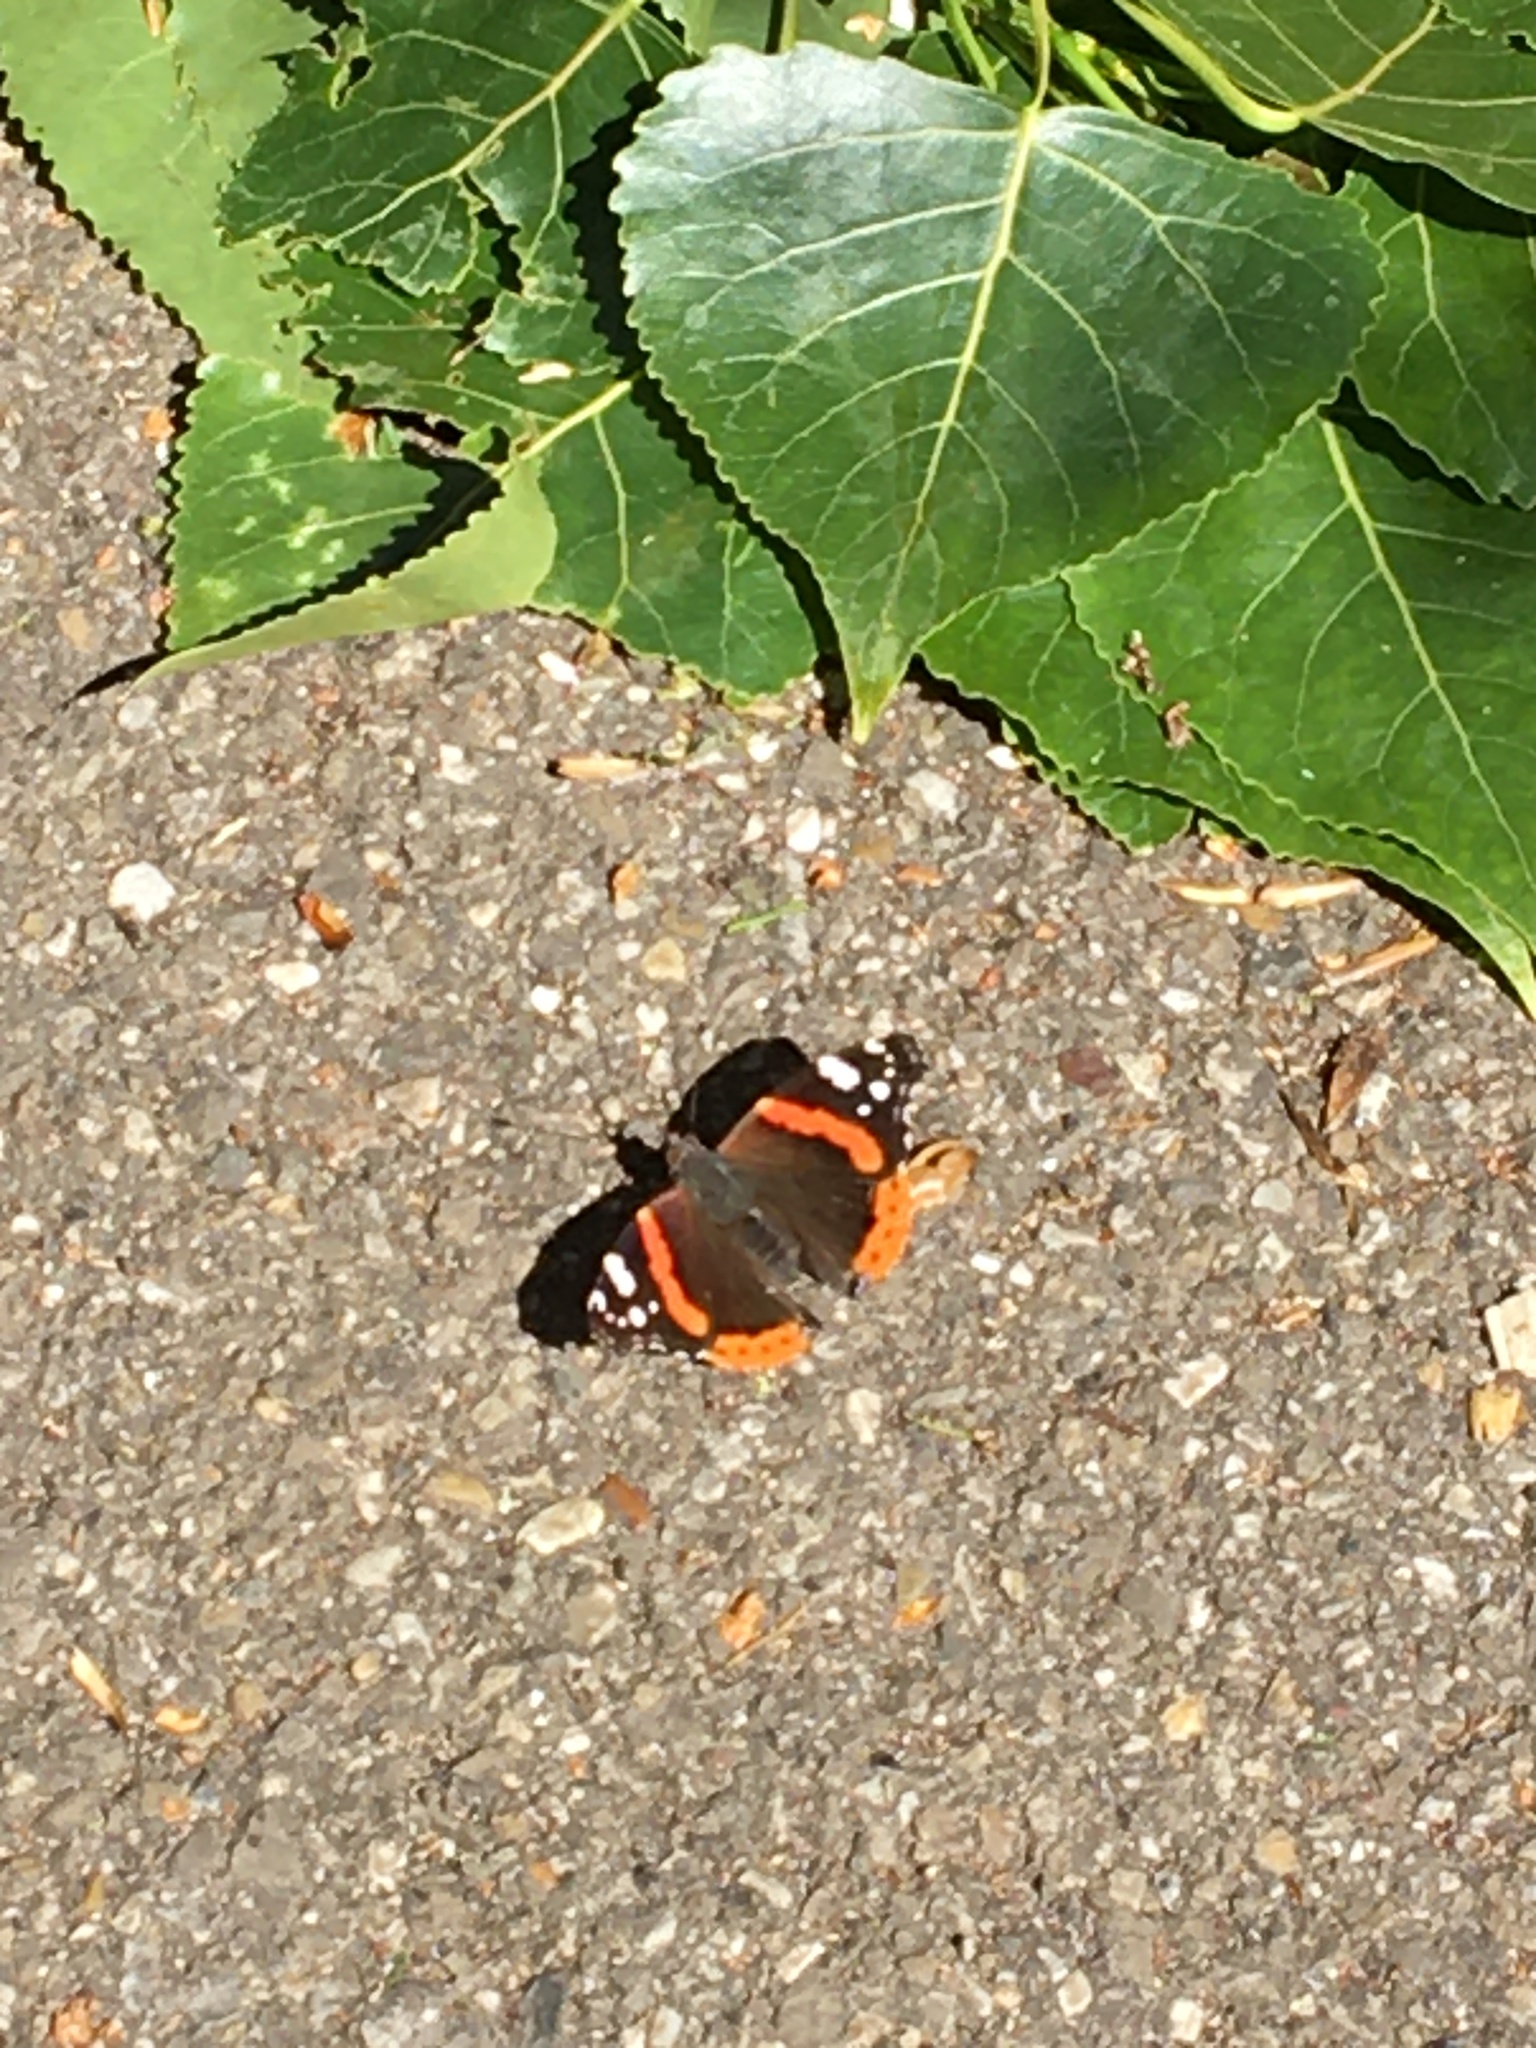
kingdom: Animalia
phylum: Arthropoda
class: Insecta
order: Lepidoptera
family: Nymphalidae
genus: Vanessa
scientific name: Vanessa atalanta
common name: Red admiral
